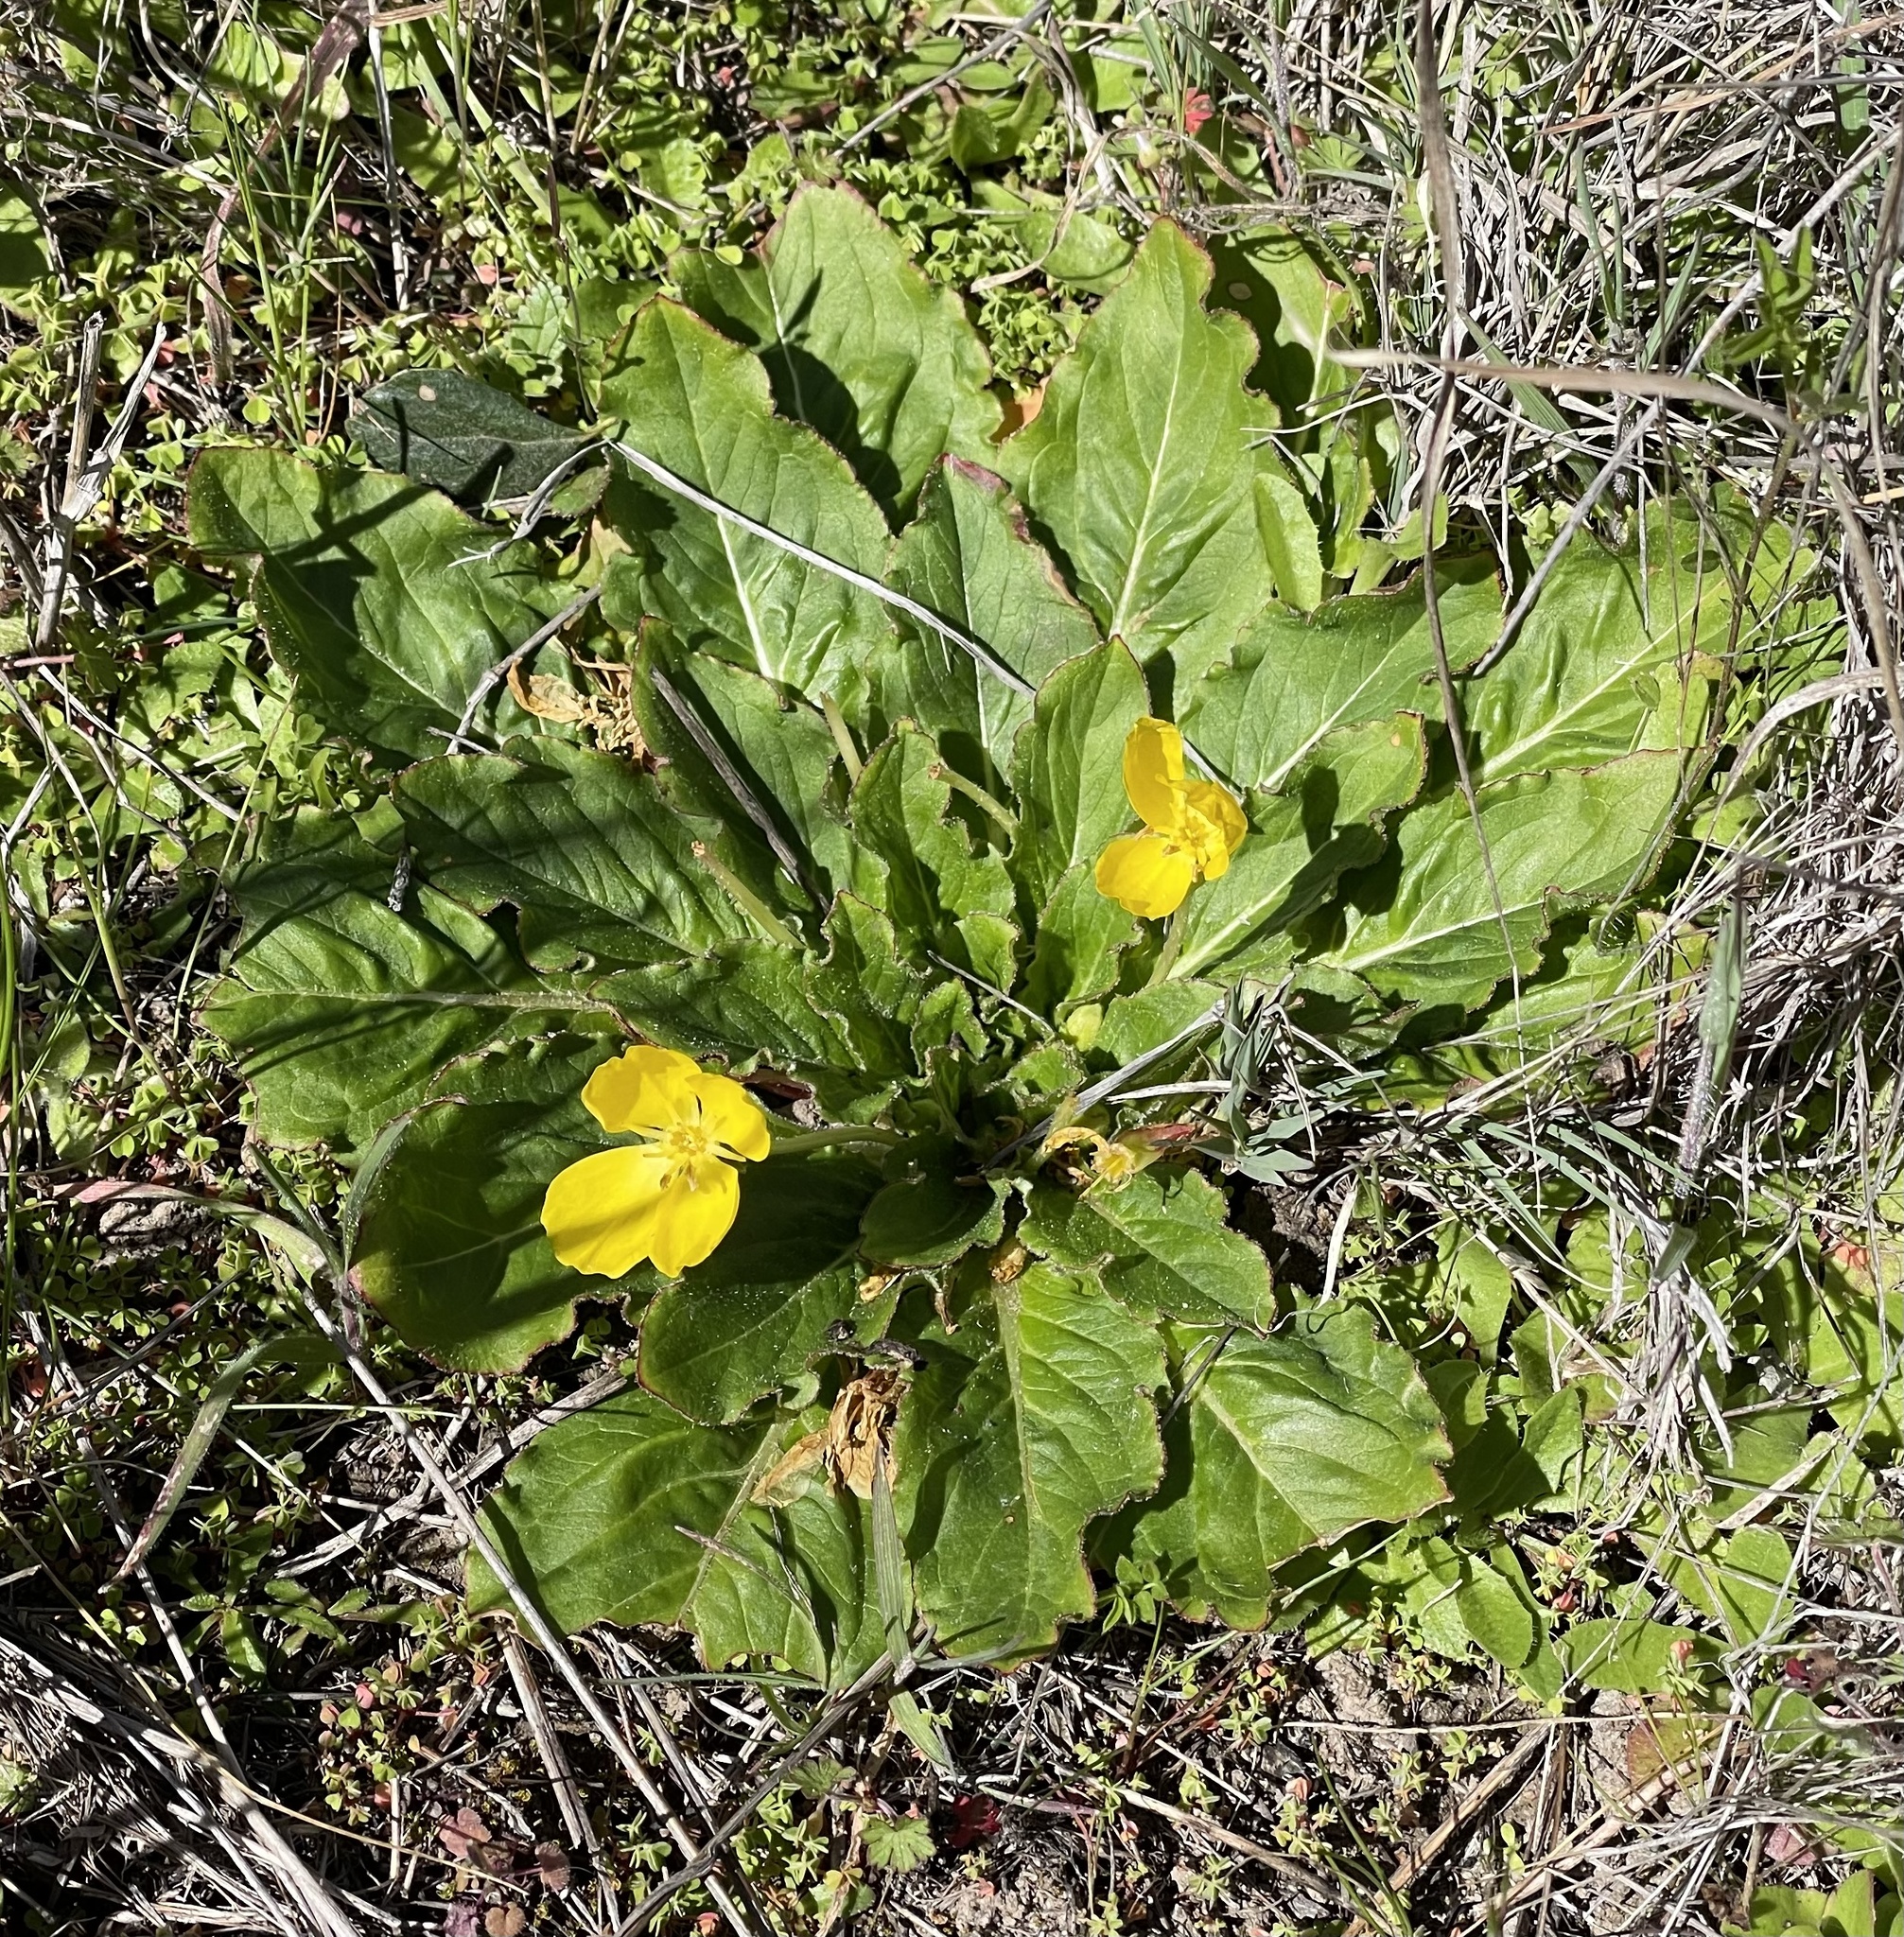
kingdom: Plantae
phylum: Tracheophyta
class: Magnoliopsida
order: Myrtales
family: Onagraceae
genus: Taraxia
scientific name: Taraxia ovata
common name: Goldeneggs
